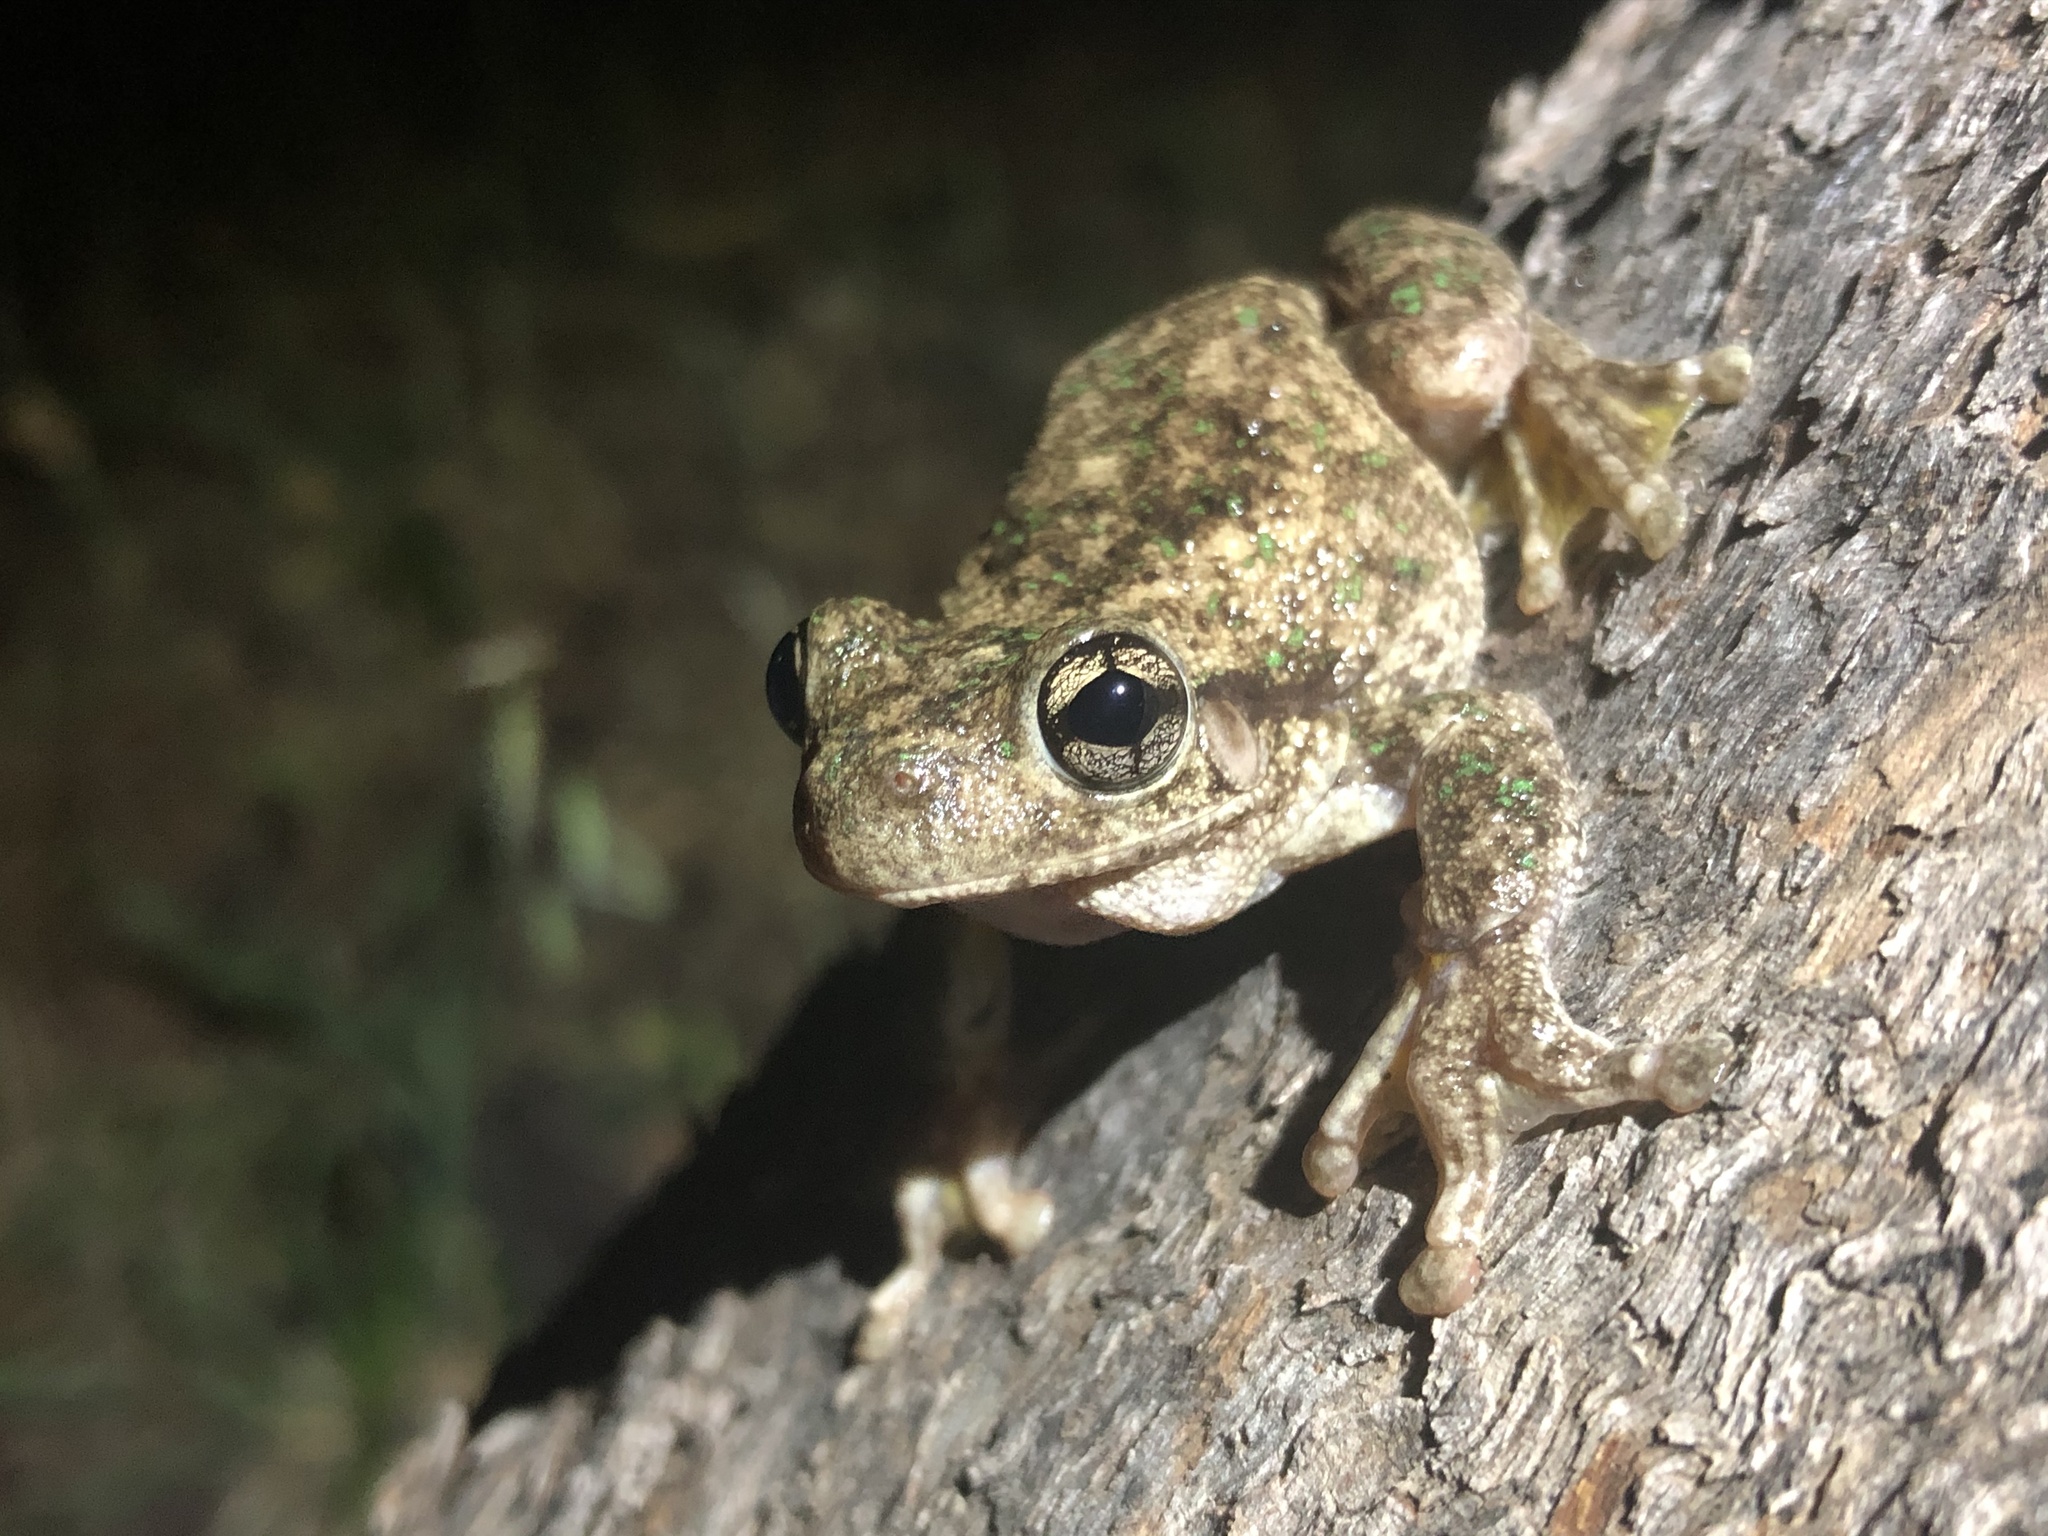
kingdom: Animalia
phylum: Chordata
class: Amphibia
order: Anura
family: Pelodryadidae
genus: Litoria
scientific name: Litoria peronii
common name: Emerald spotted treefrog
